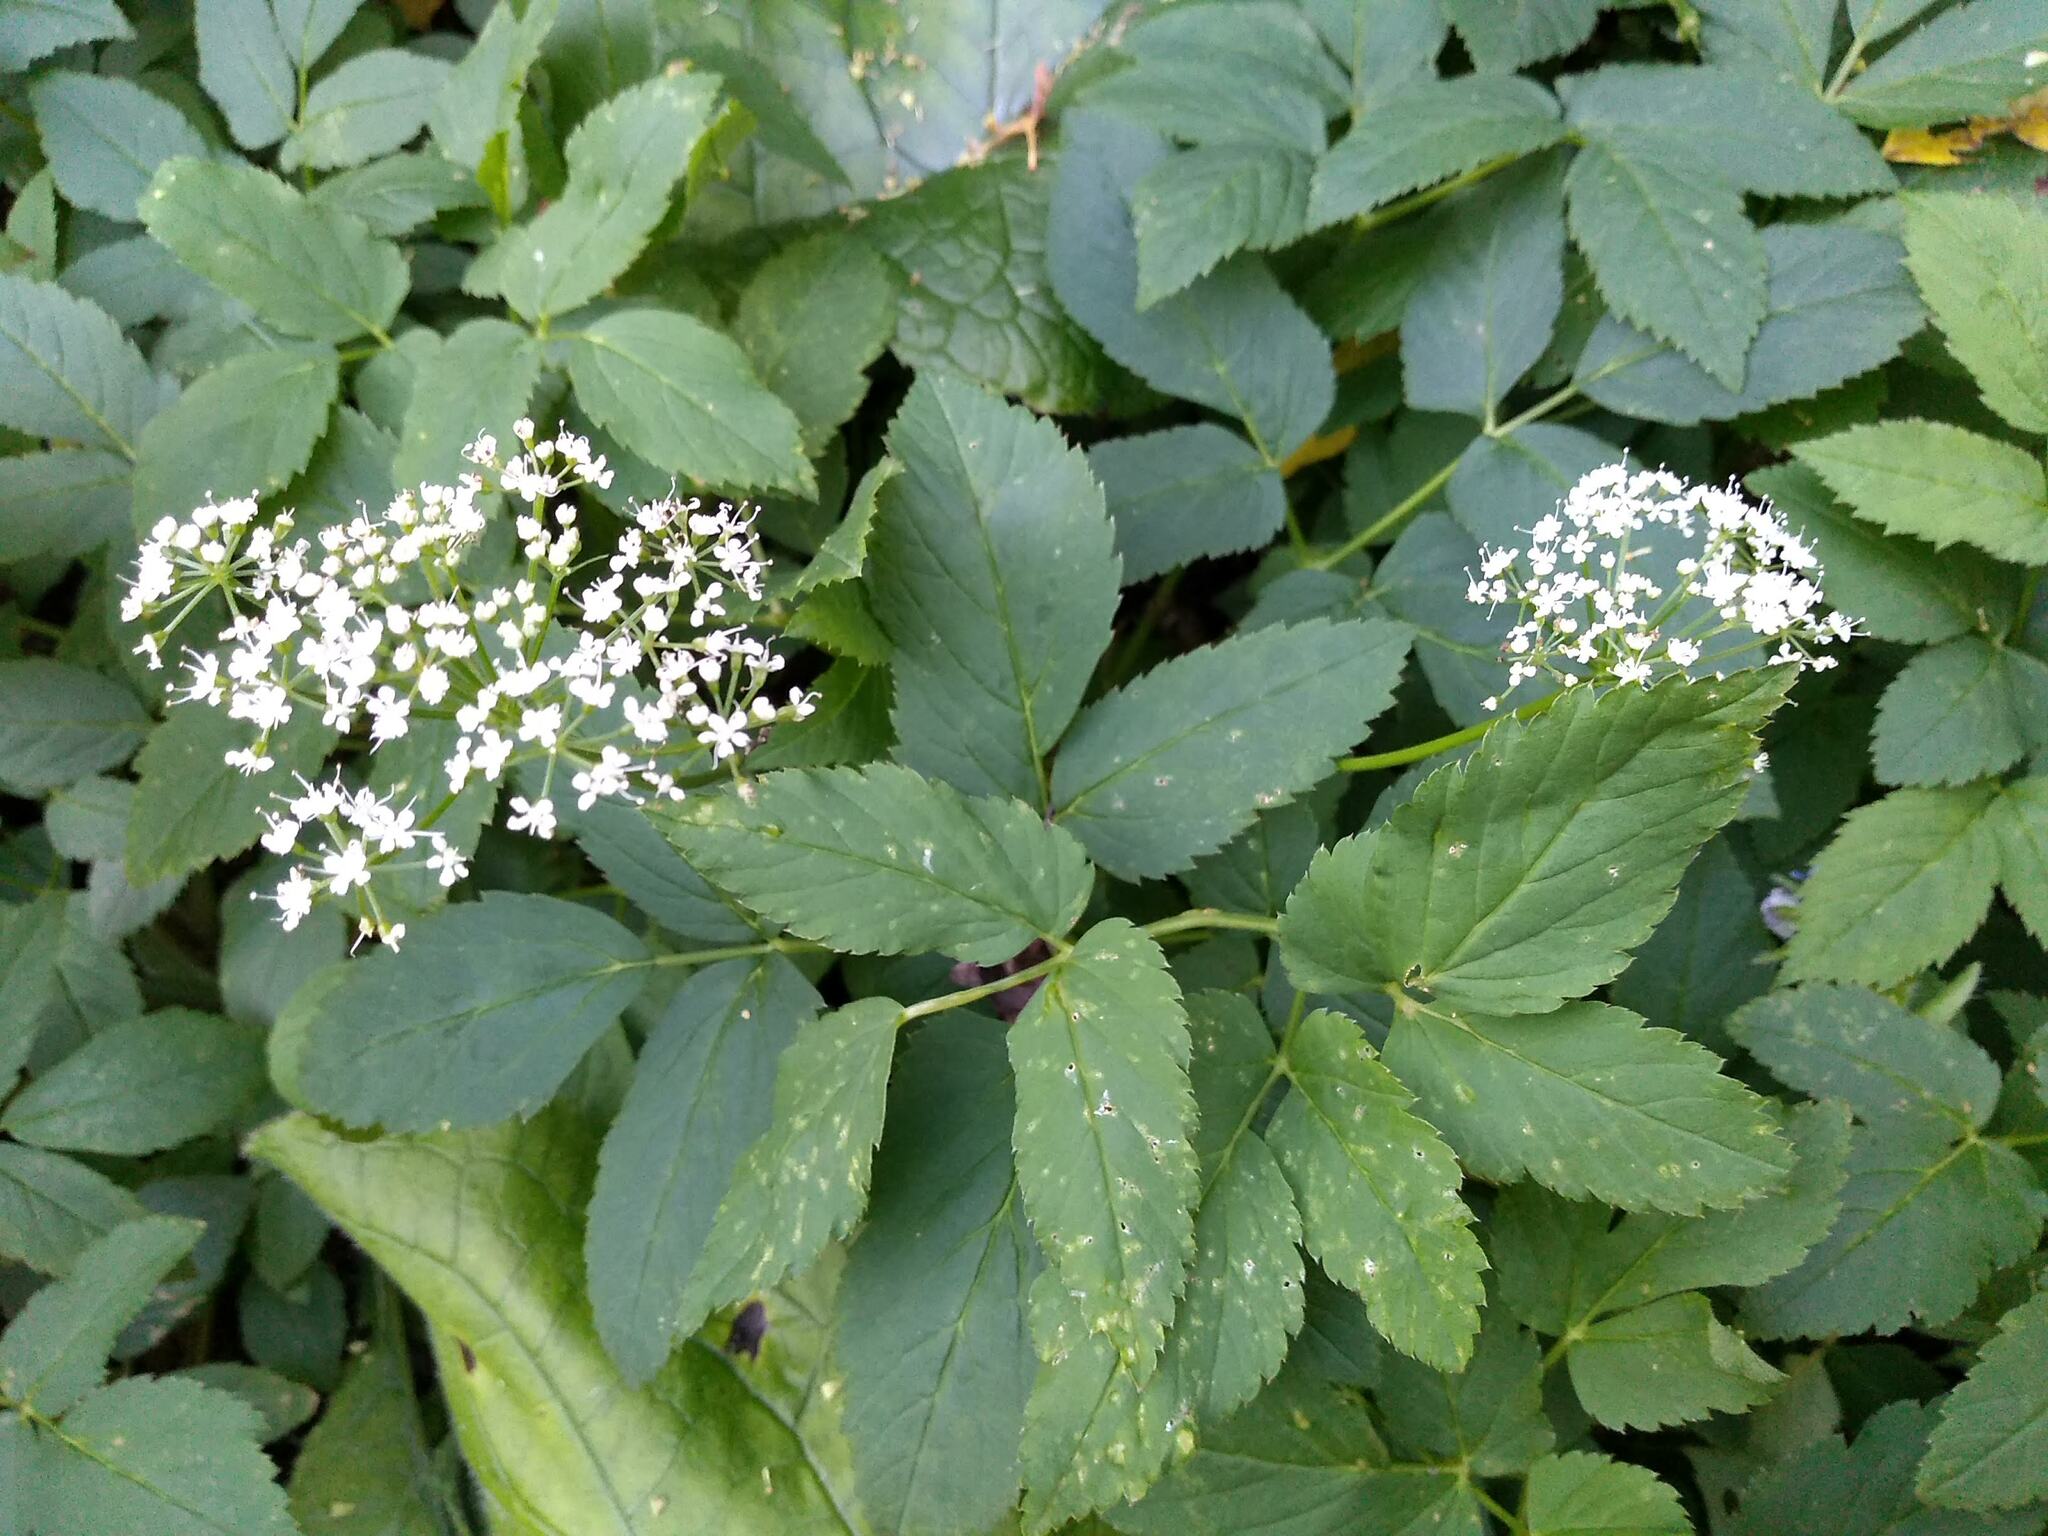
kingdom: Plantae
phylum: Tracheophyta
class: Magnoliopsida
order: Apiales
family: Apiaceae
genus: Aegopodium
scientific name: Aegopodium podagraria
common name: Ground-elder
